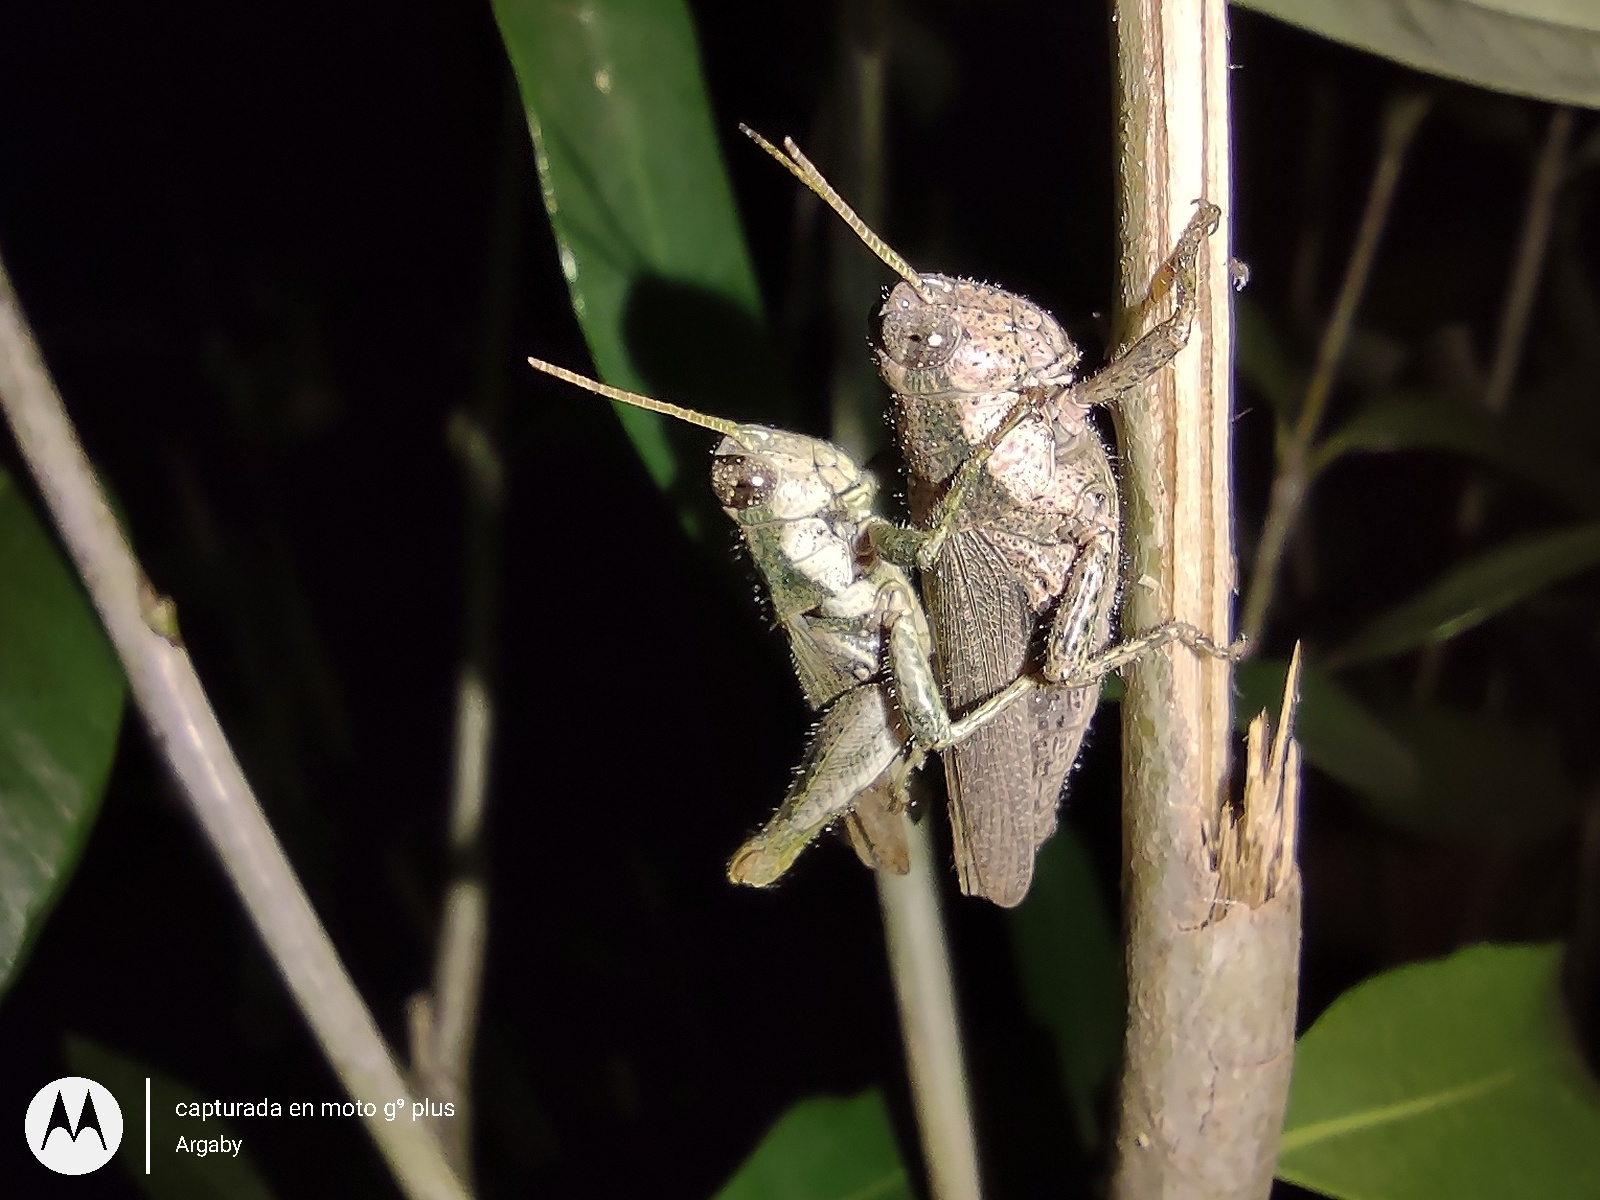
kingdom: Animalia
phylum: Arthropoda
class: Insecta
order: Orthoptera
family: Acrididae
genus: Ronderosia
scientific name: Ronderosia bergii
